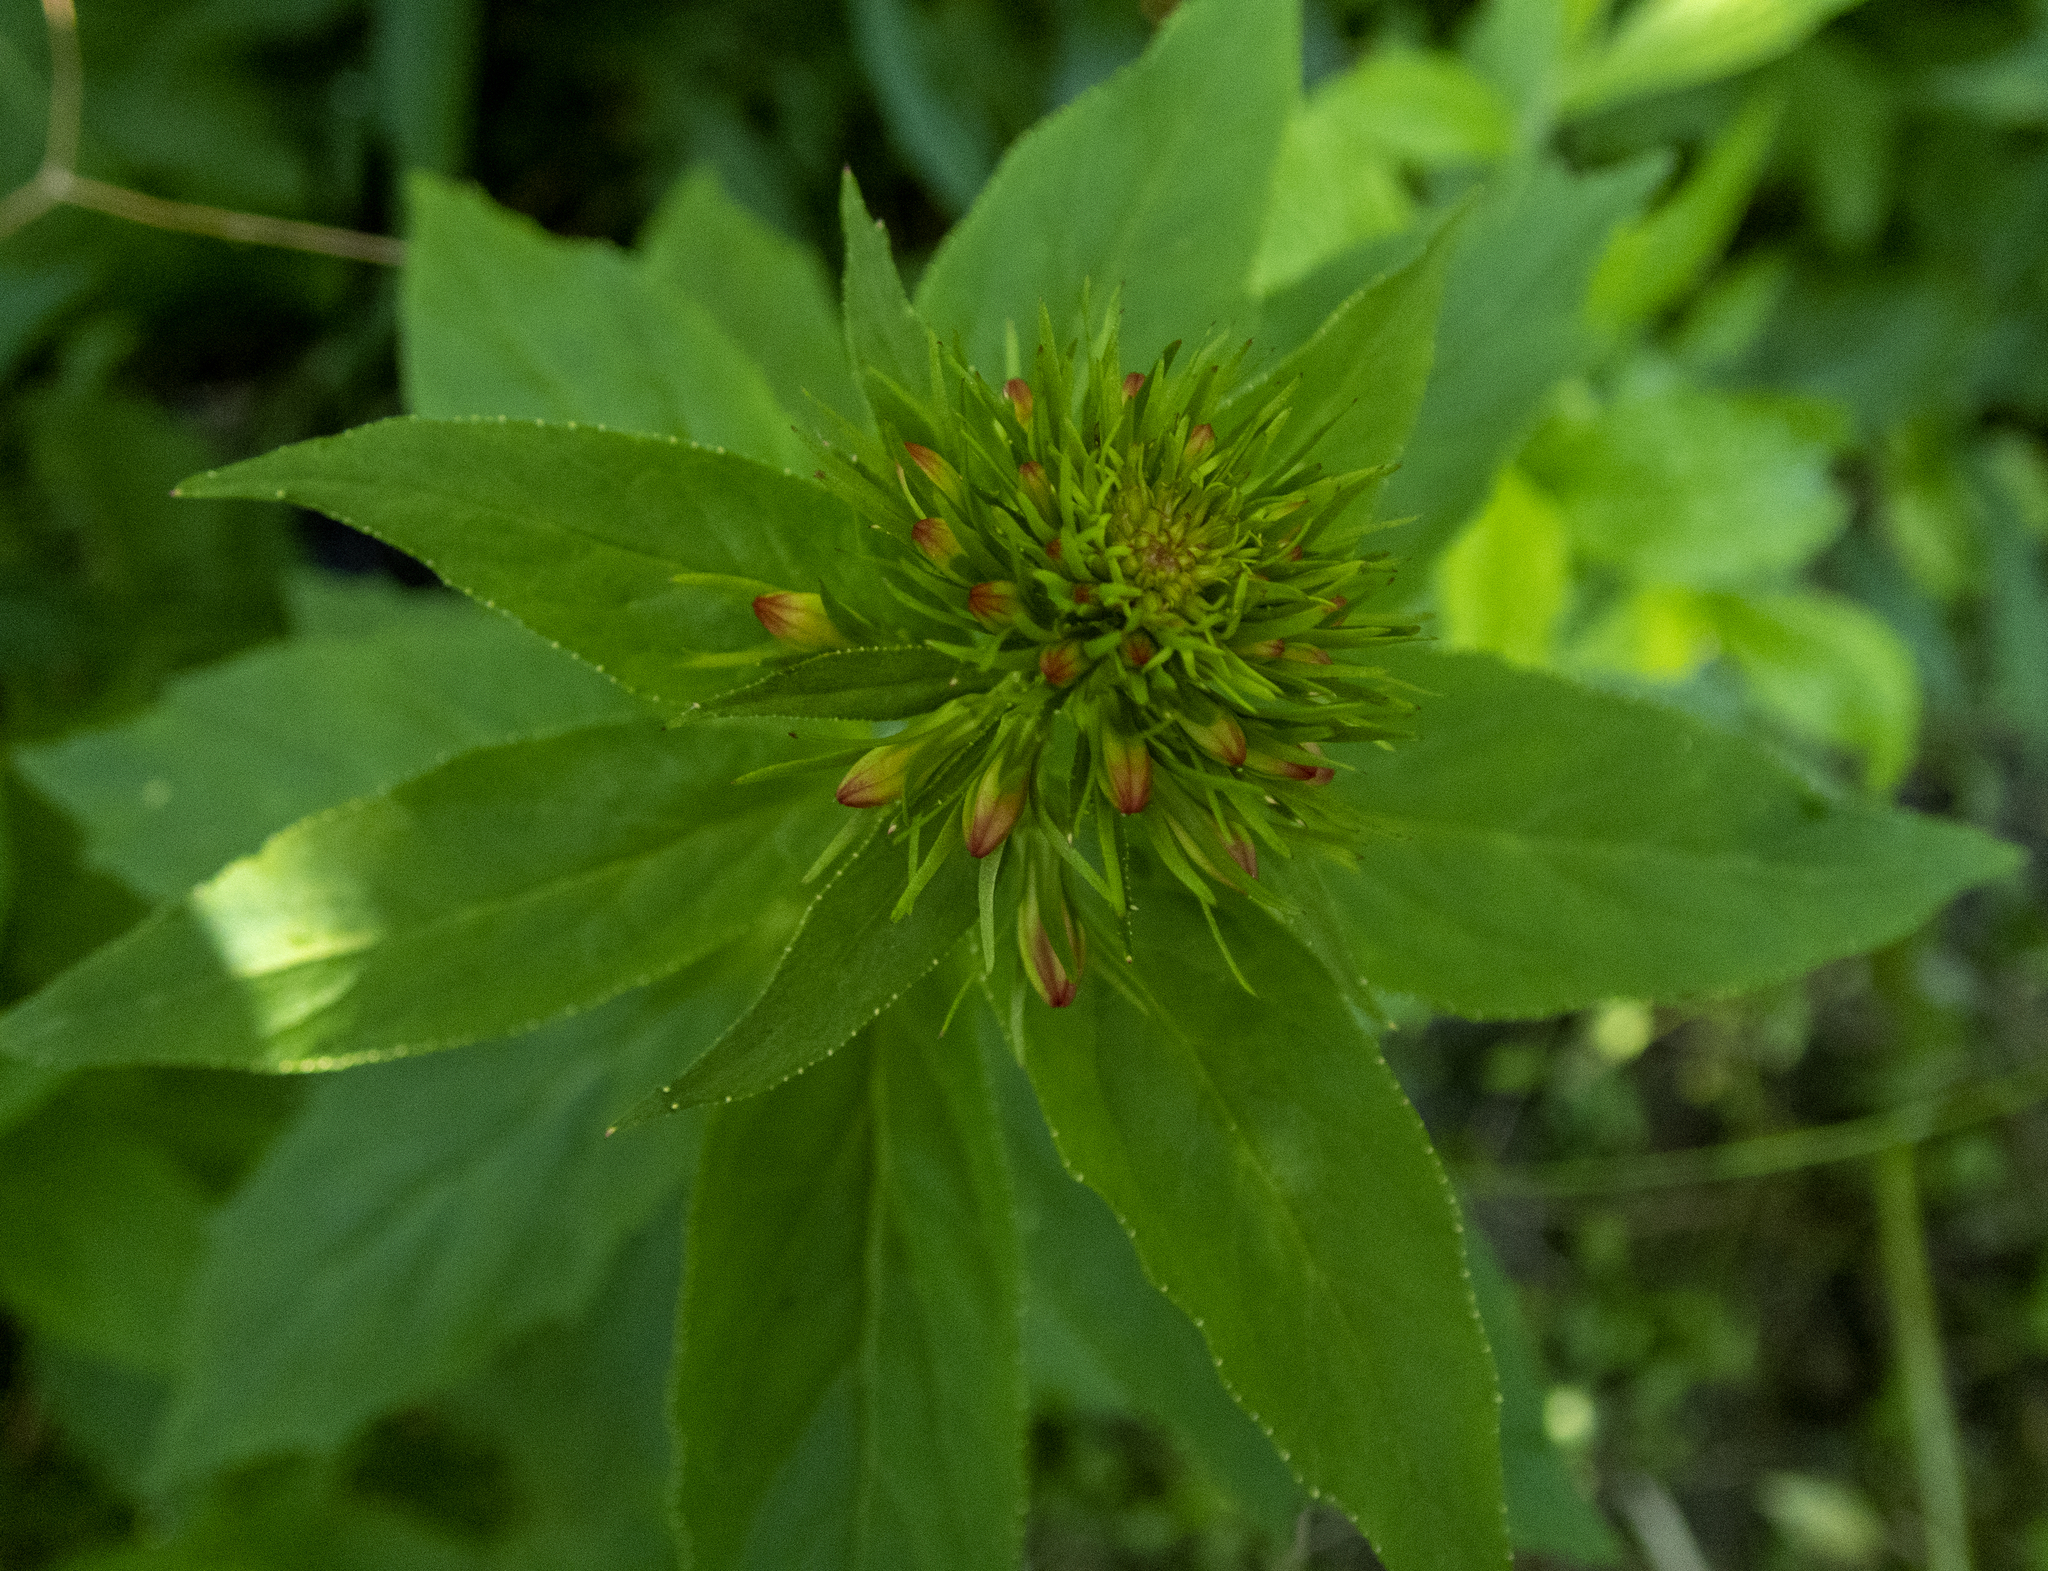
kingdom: Plantae
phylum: Tracheophyta
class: Magnoliopsida
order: Asterales
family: Campanulaceae
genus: Lobelia
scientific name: Lobelia cardinalis
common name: Cardinal flower
